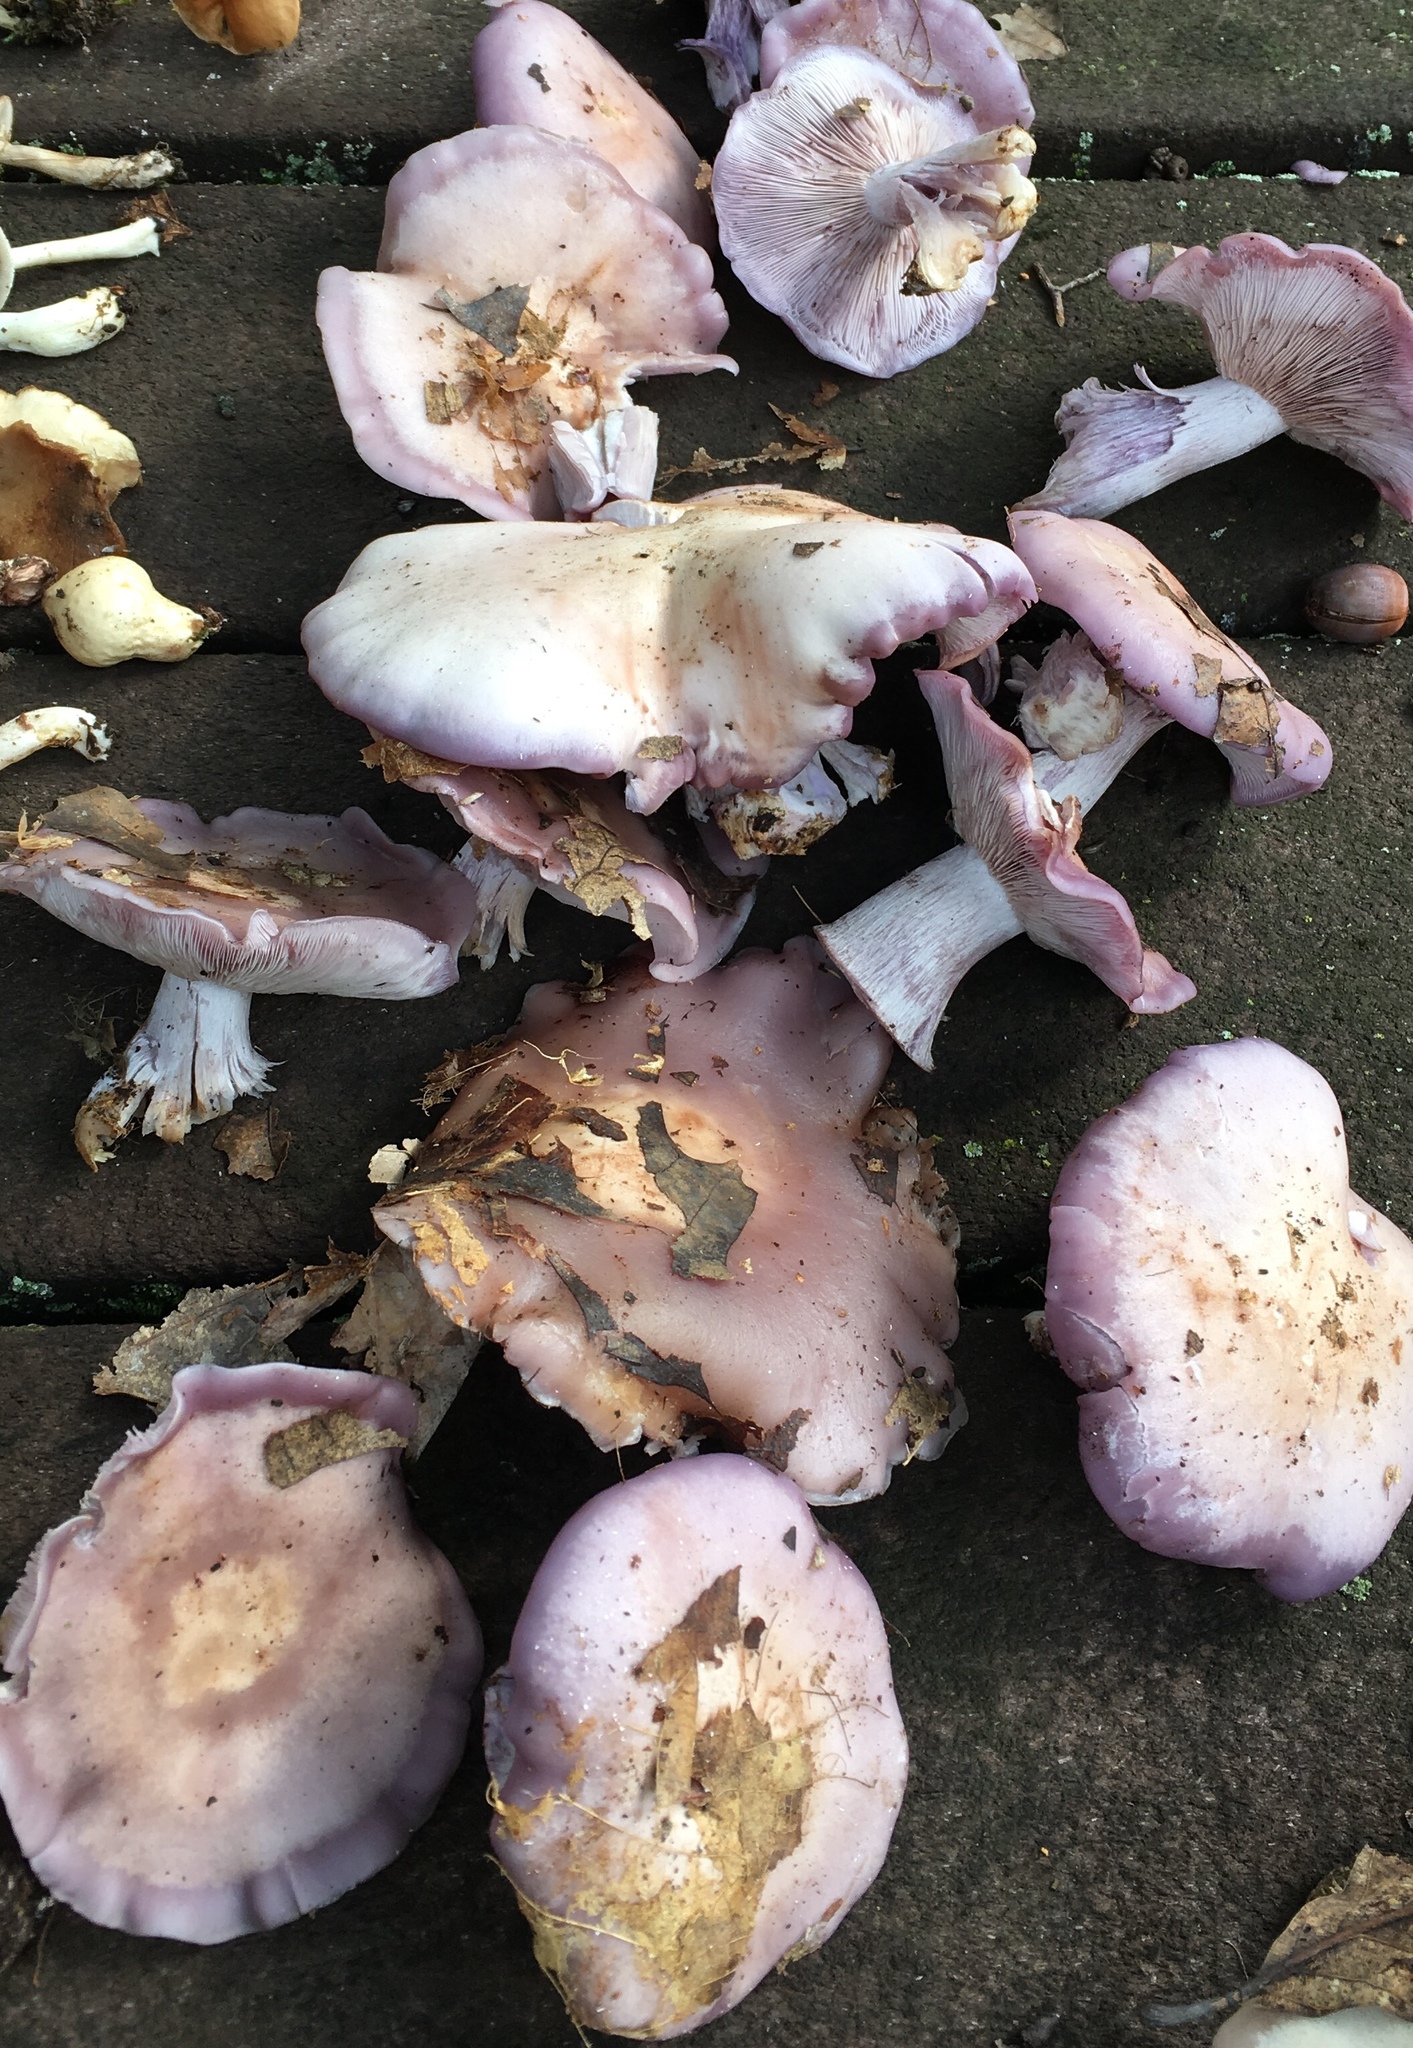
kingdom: Fungi
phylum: Basidiomycota
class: Agaricomycetes
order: Agaricales
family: Tricholomataceae
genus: Collybia
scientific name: Collybia
